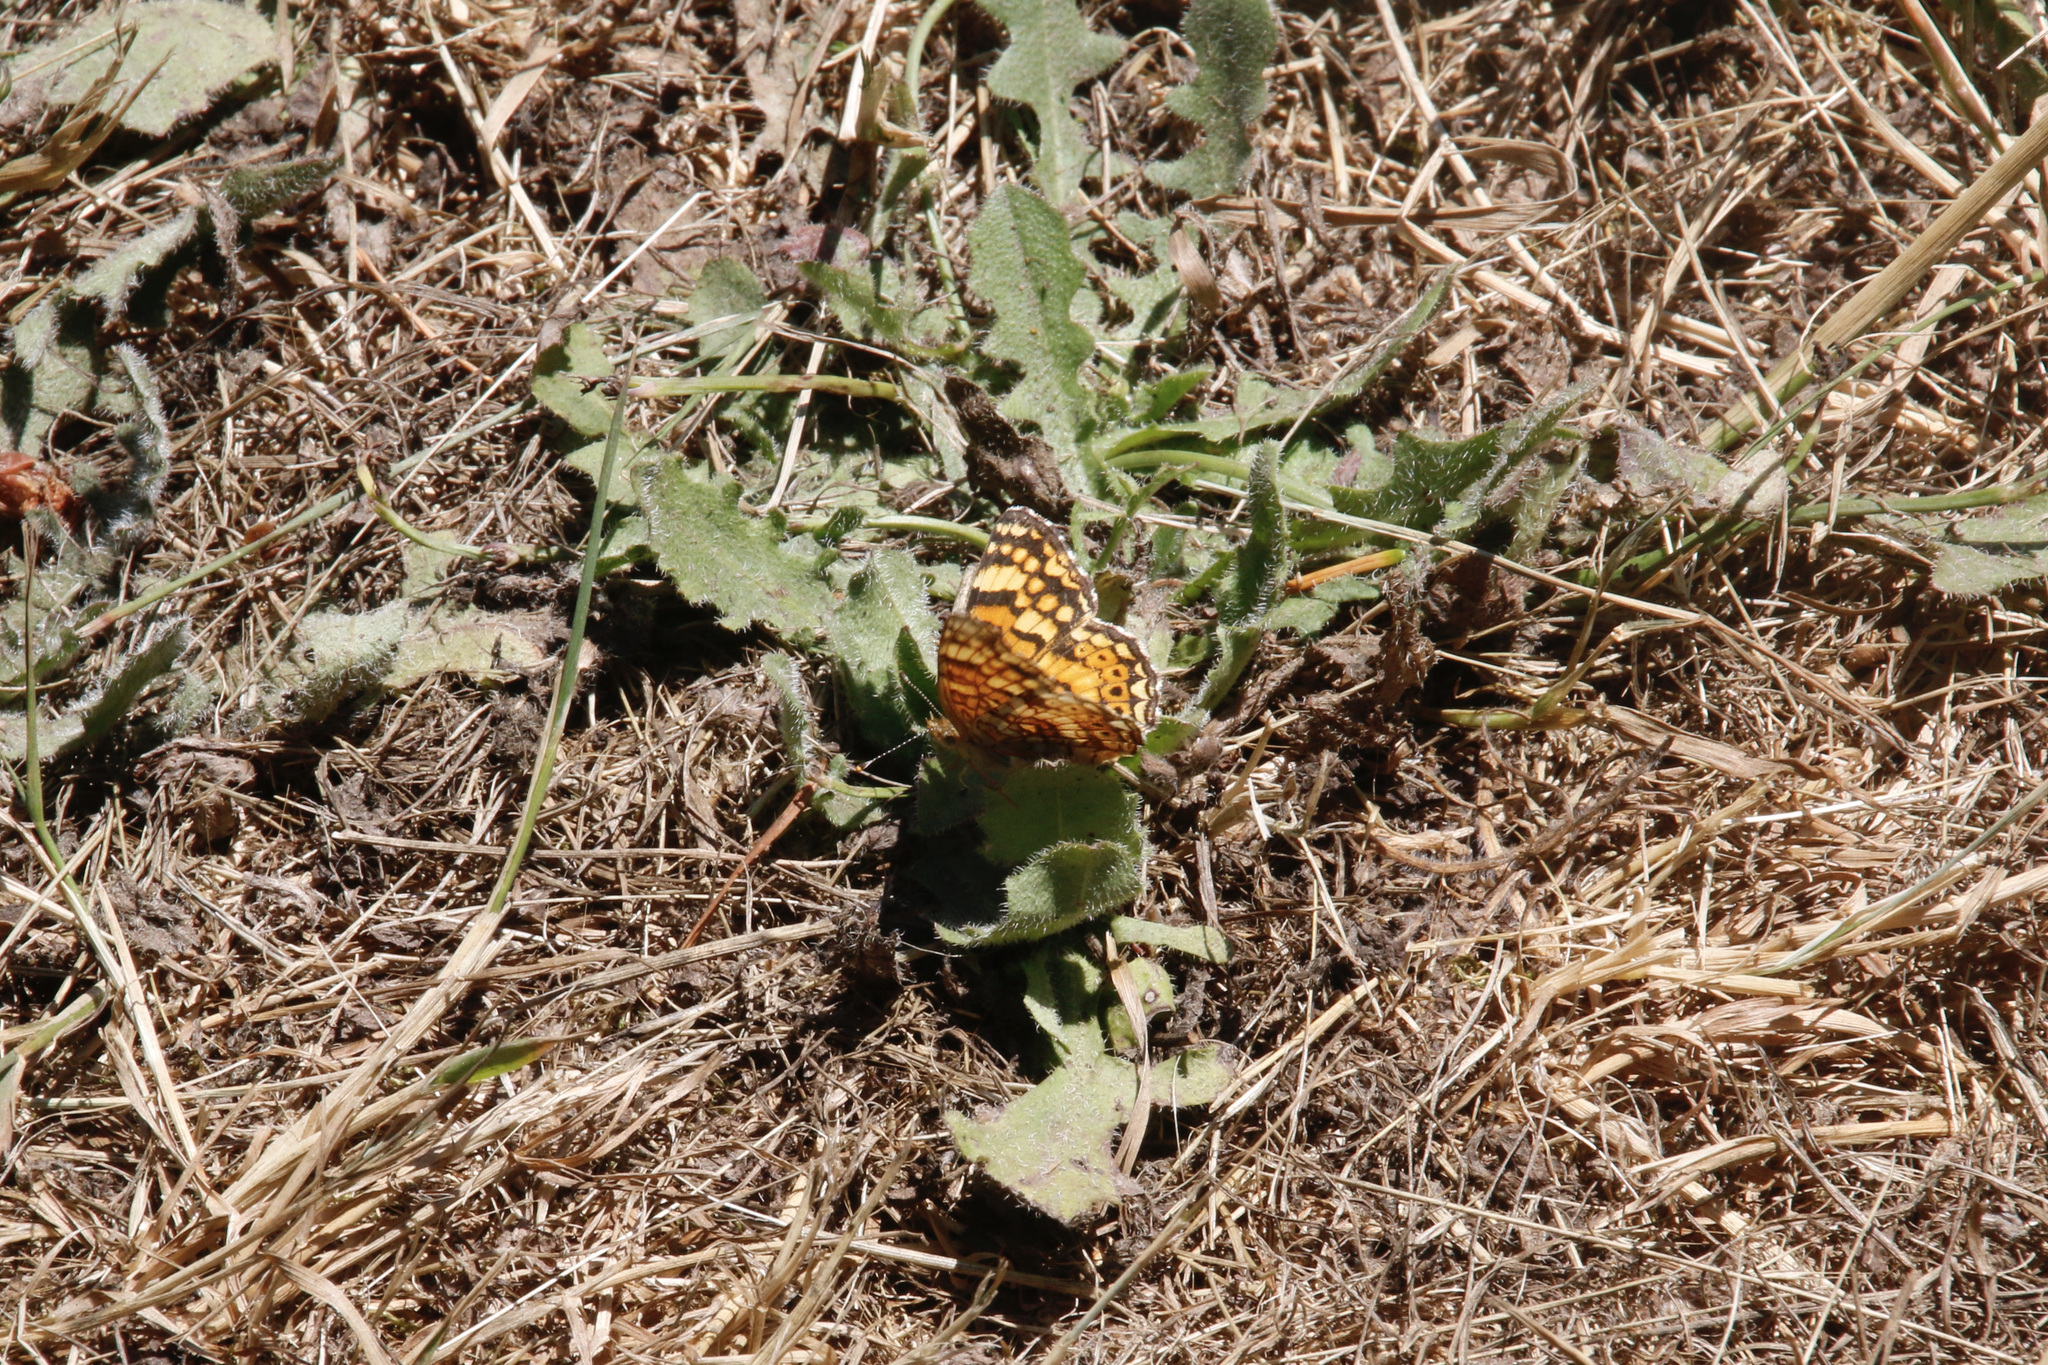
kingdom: Animalia
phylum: Arthropoda
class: Insecta
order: Lepidoptera
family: Nymphalidae
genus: Eresia
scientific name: Eresia aveyrona
